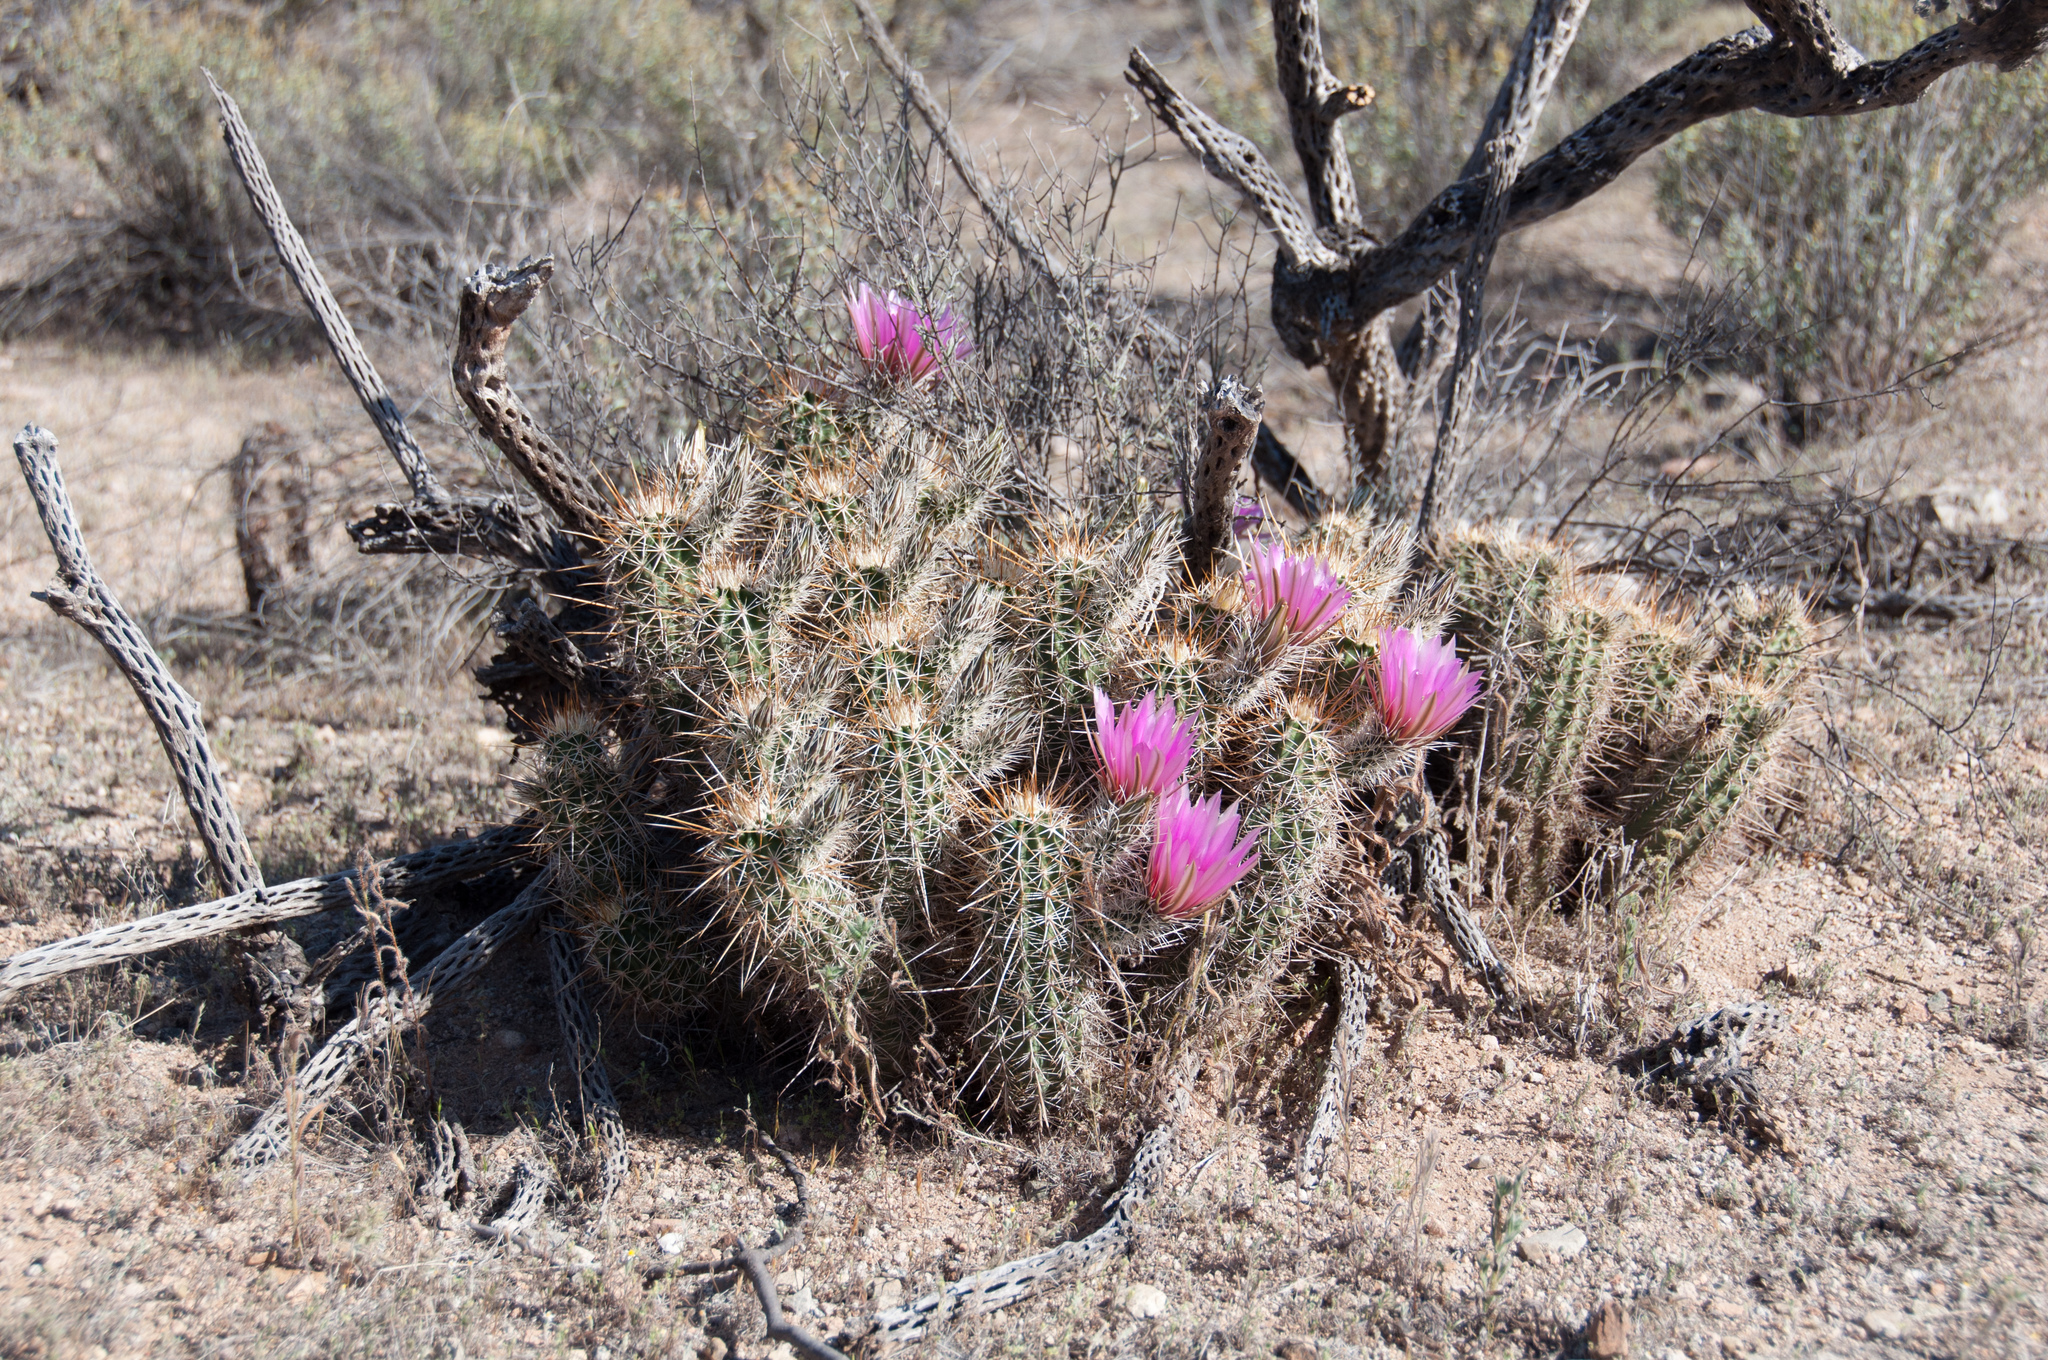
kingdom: Plantae
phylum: Tracheophyta
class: Magnoliopsida
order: Caryophyllales
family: Cactaceae
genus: Echinocereus
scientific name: Echinocereus fasciculatus
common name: Bundle hedgehog
